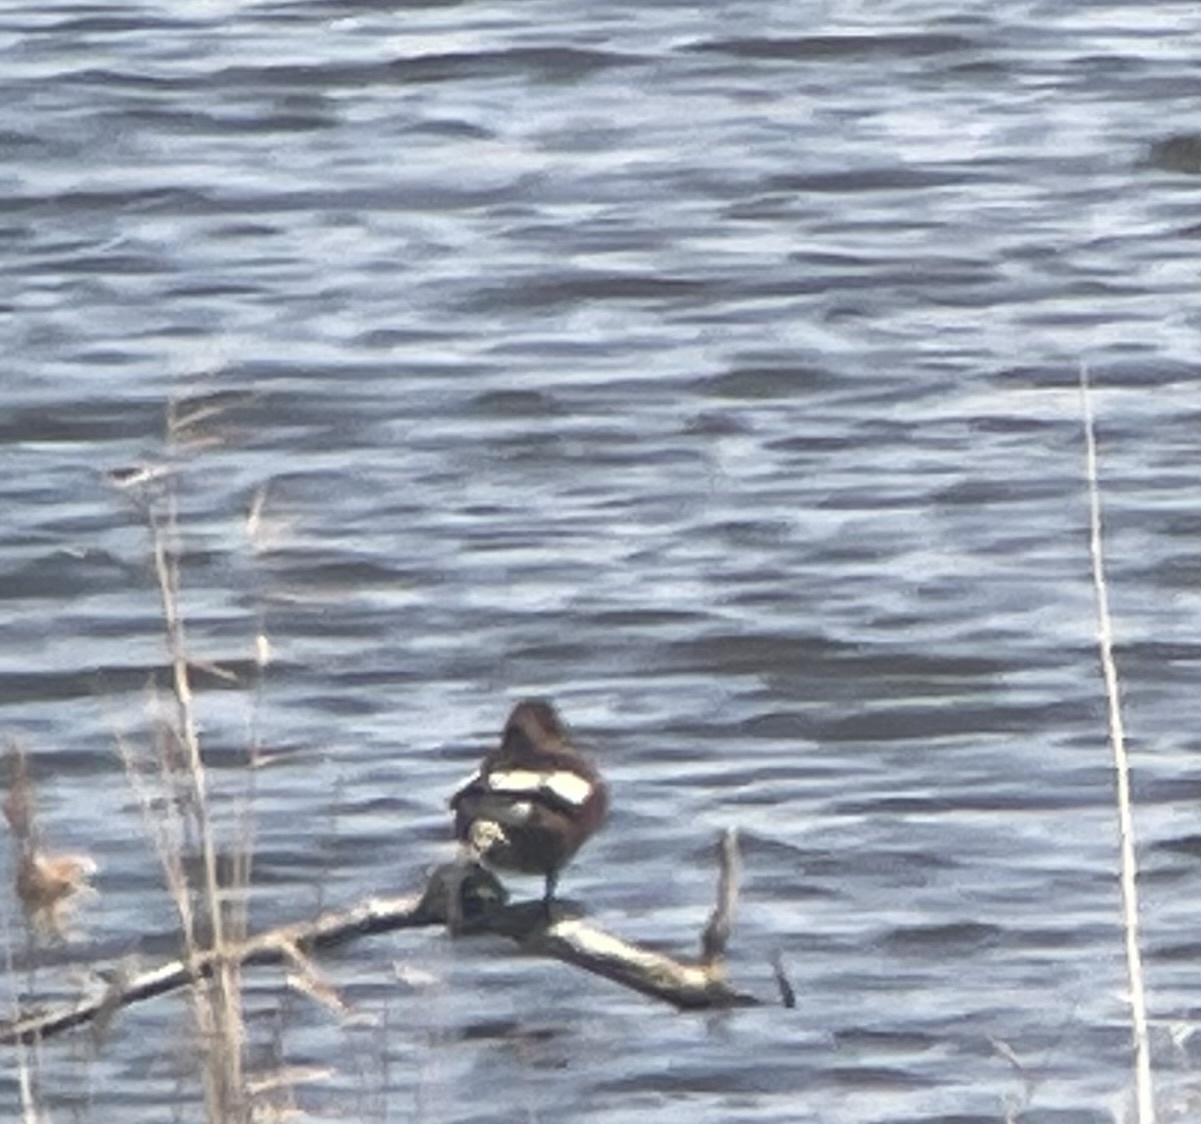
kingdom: Animalia
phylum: Chordata
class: Aves
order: Anseriformes
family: Anatidae
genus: Aythya
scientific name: Aythya nyroca
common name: Ferruginous duck
